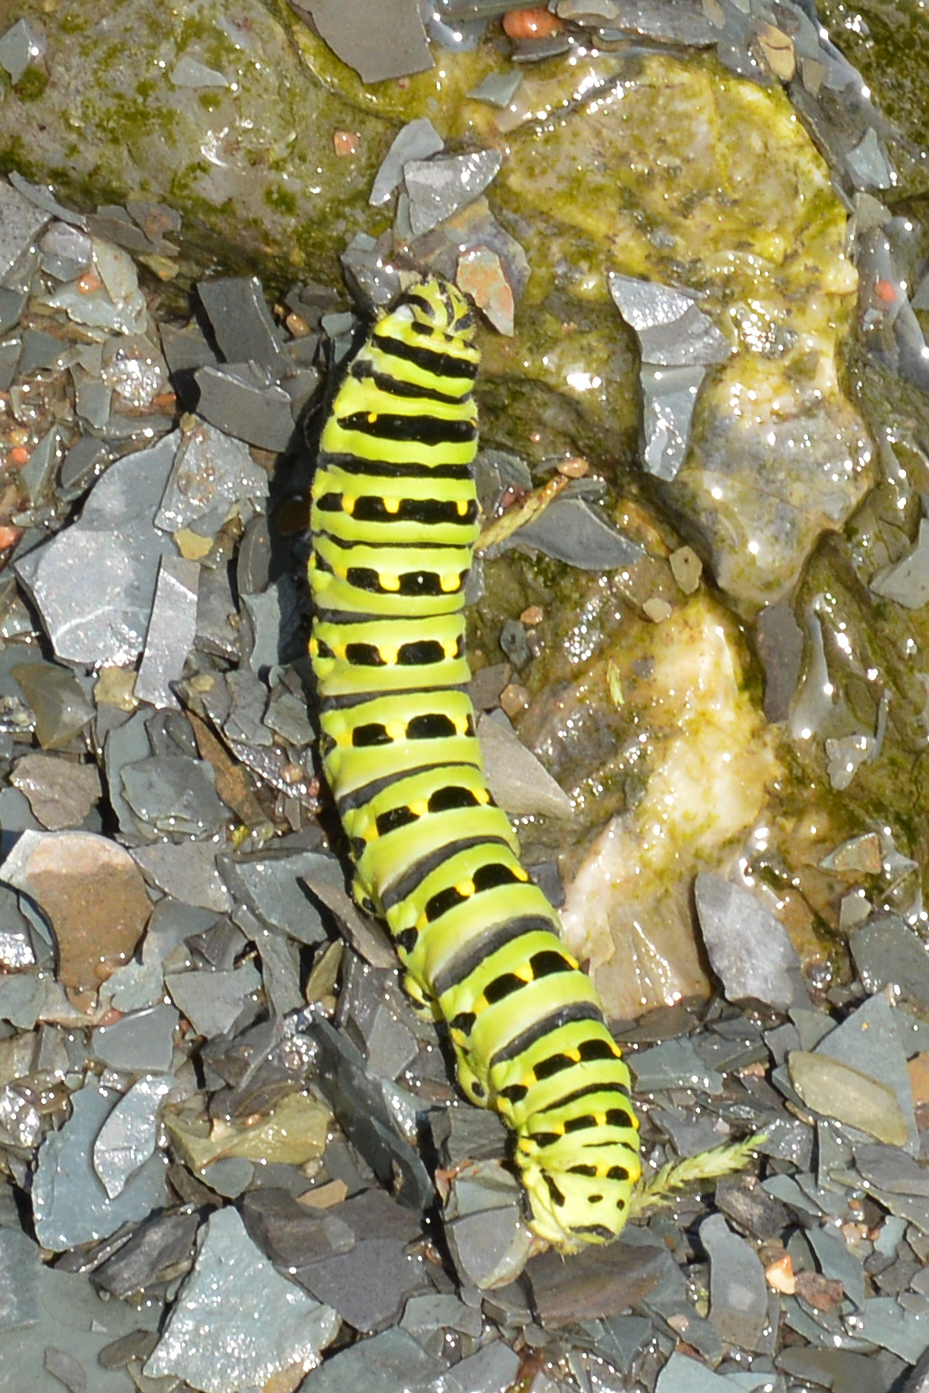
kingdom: Animalia
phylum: Arthropoda
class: Insecta
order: Lepidoptera
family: Papilionidae
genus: Papilio
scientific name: Papilio brevicauda
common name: Short tailed swallowtail
